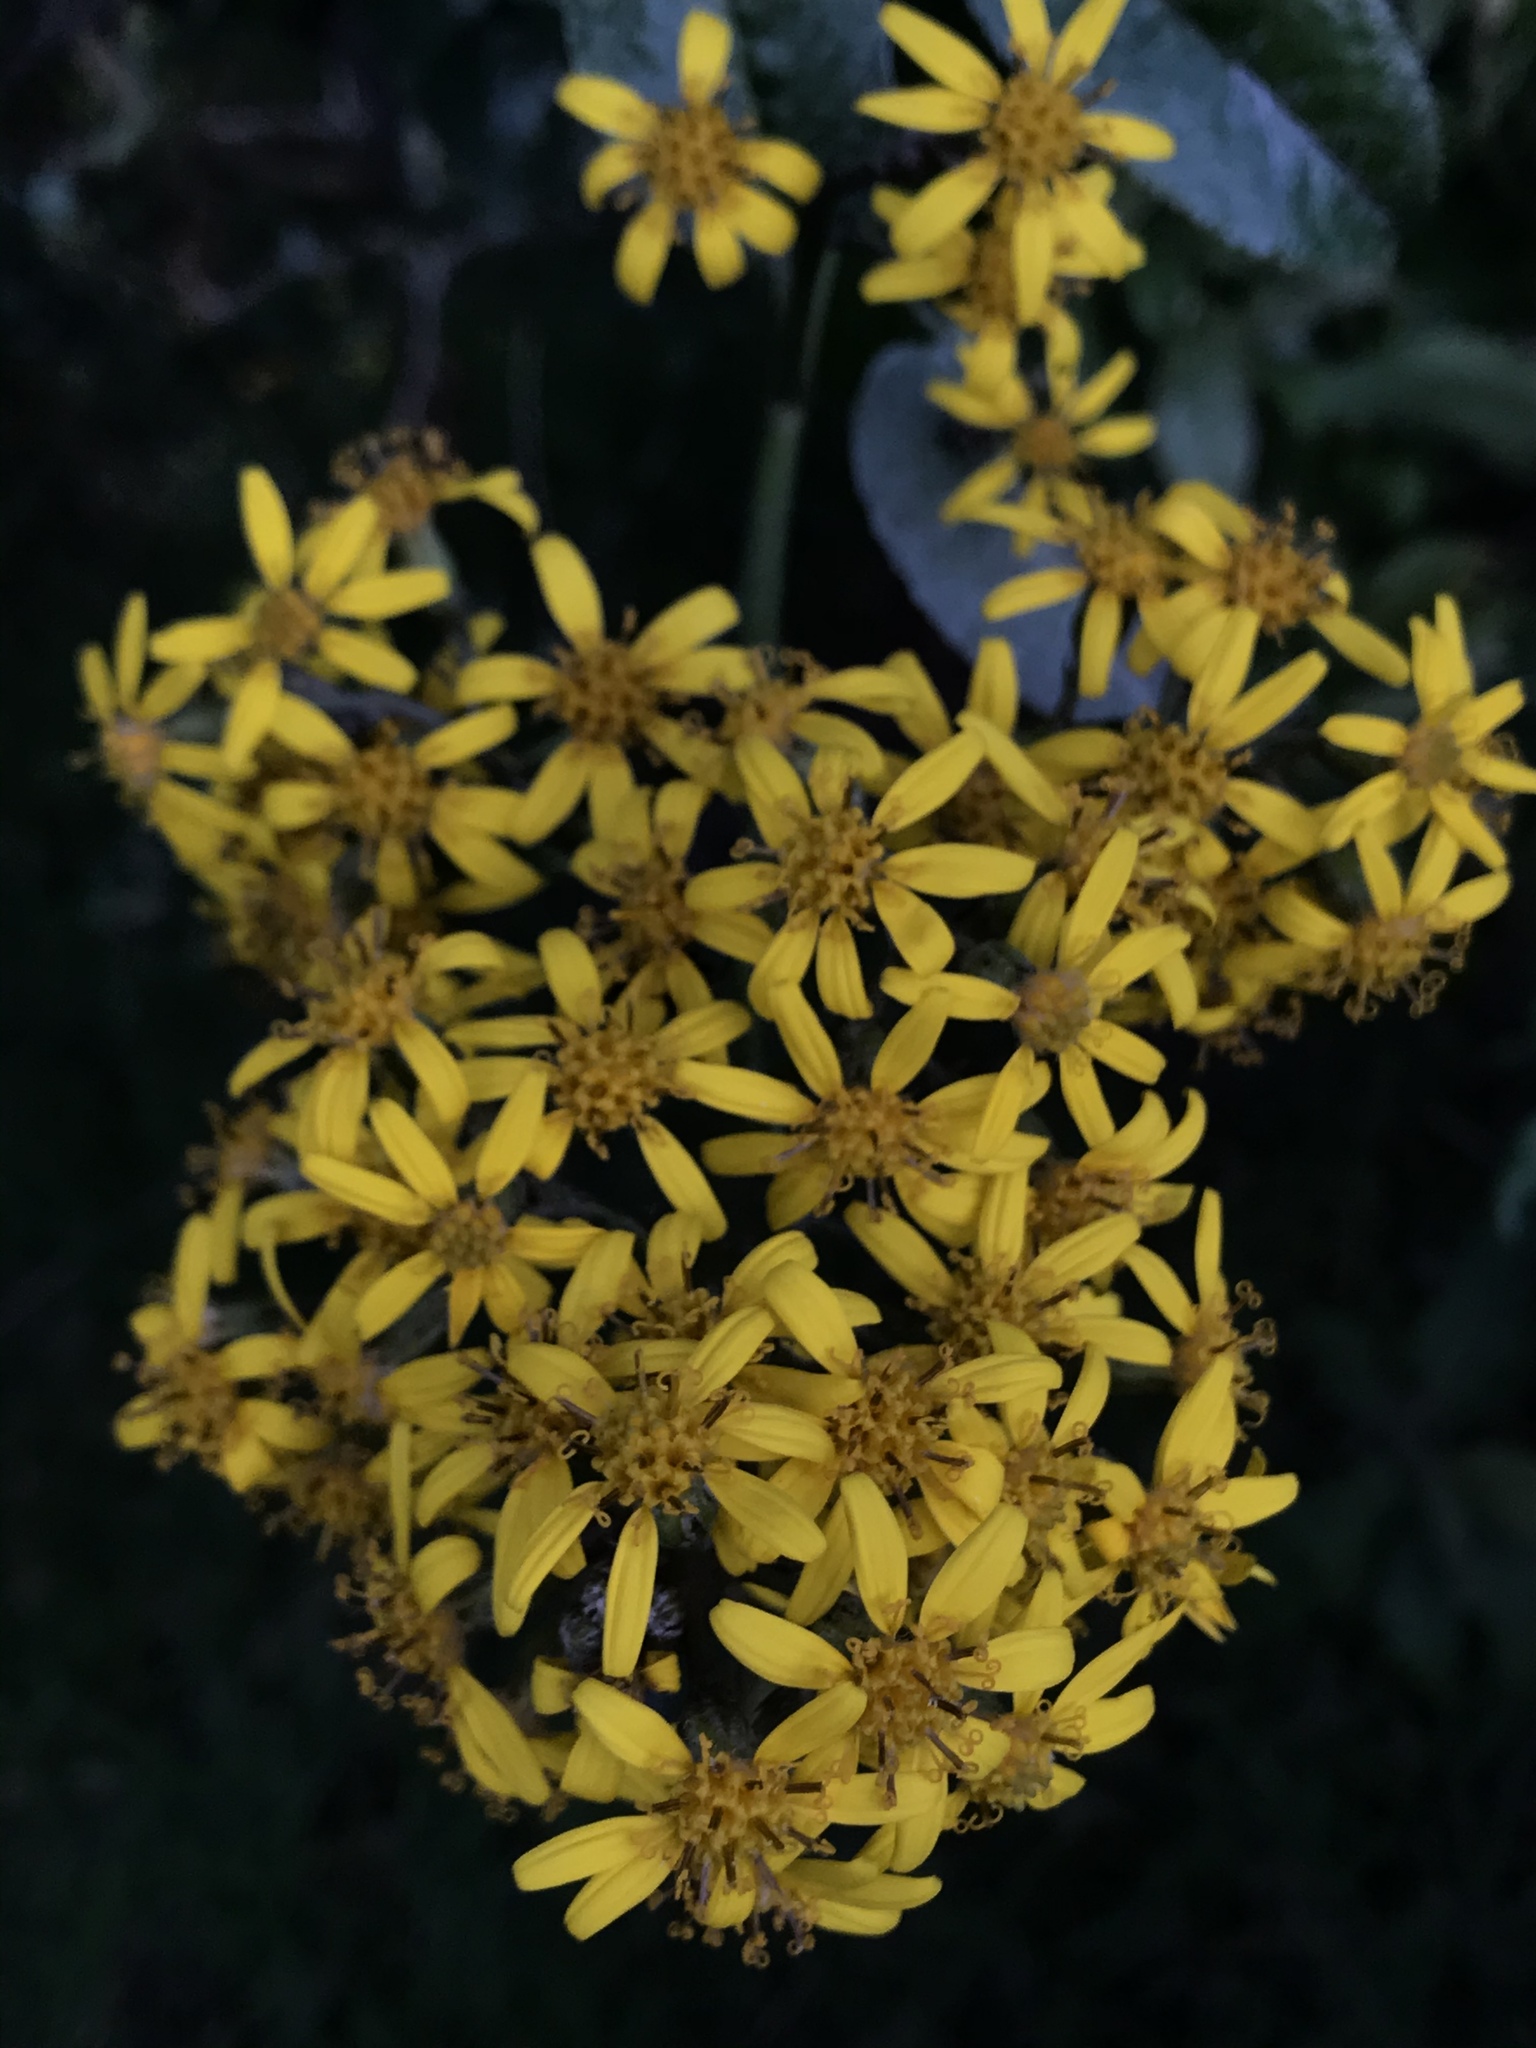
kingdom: Plantae
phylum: Tracheophyta
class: Magnoliopsida
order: Asterales
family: Asteraceae
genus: Dendrophorbium
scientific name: Dendrophorbium americanum
